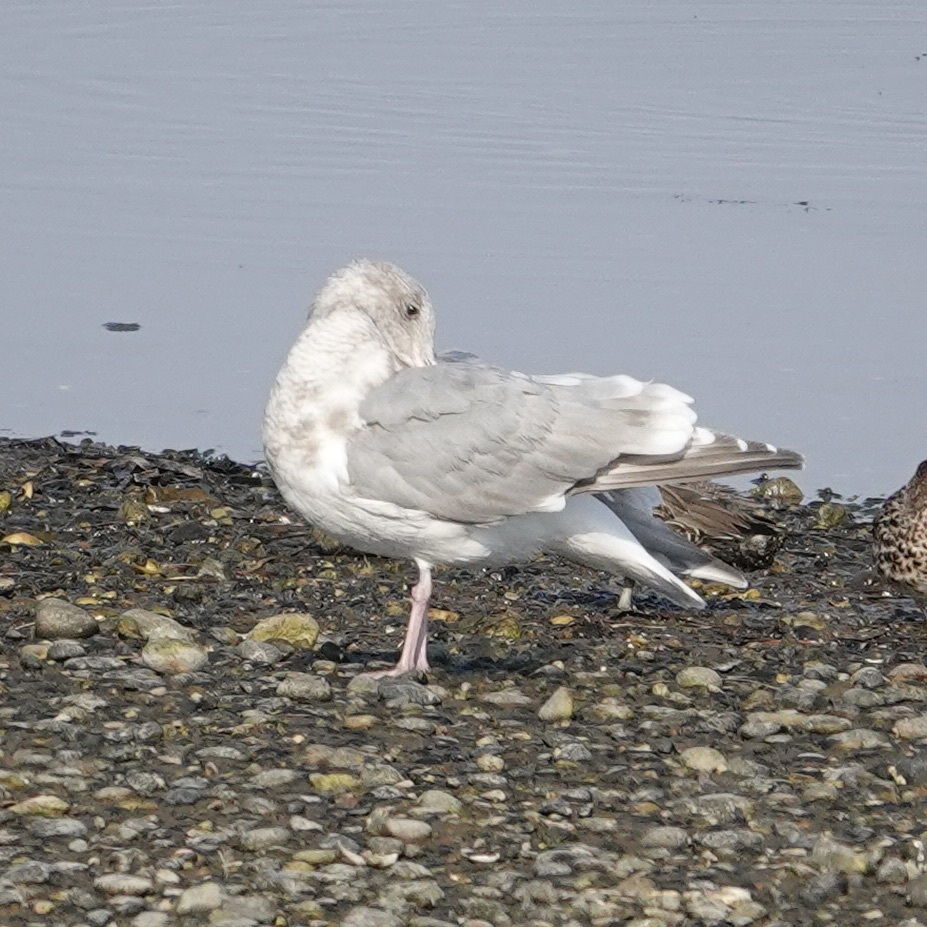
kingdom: Animalia
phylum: Chordata
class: Aves
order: Charadriiformes
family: Laridae
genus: Larus
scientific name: Larus
